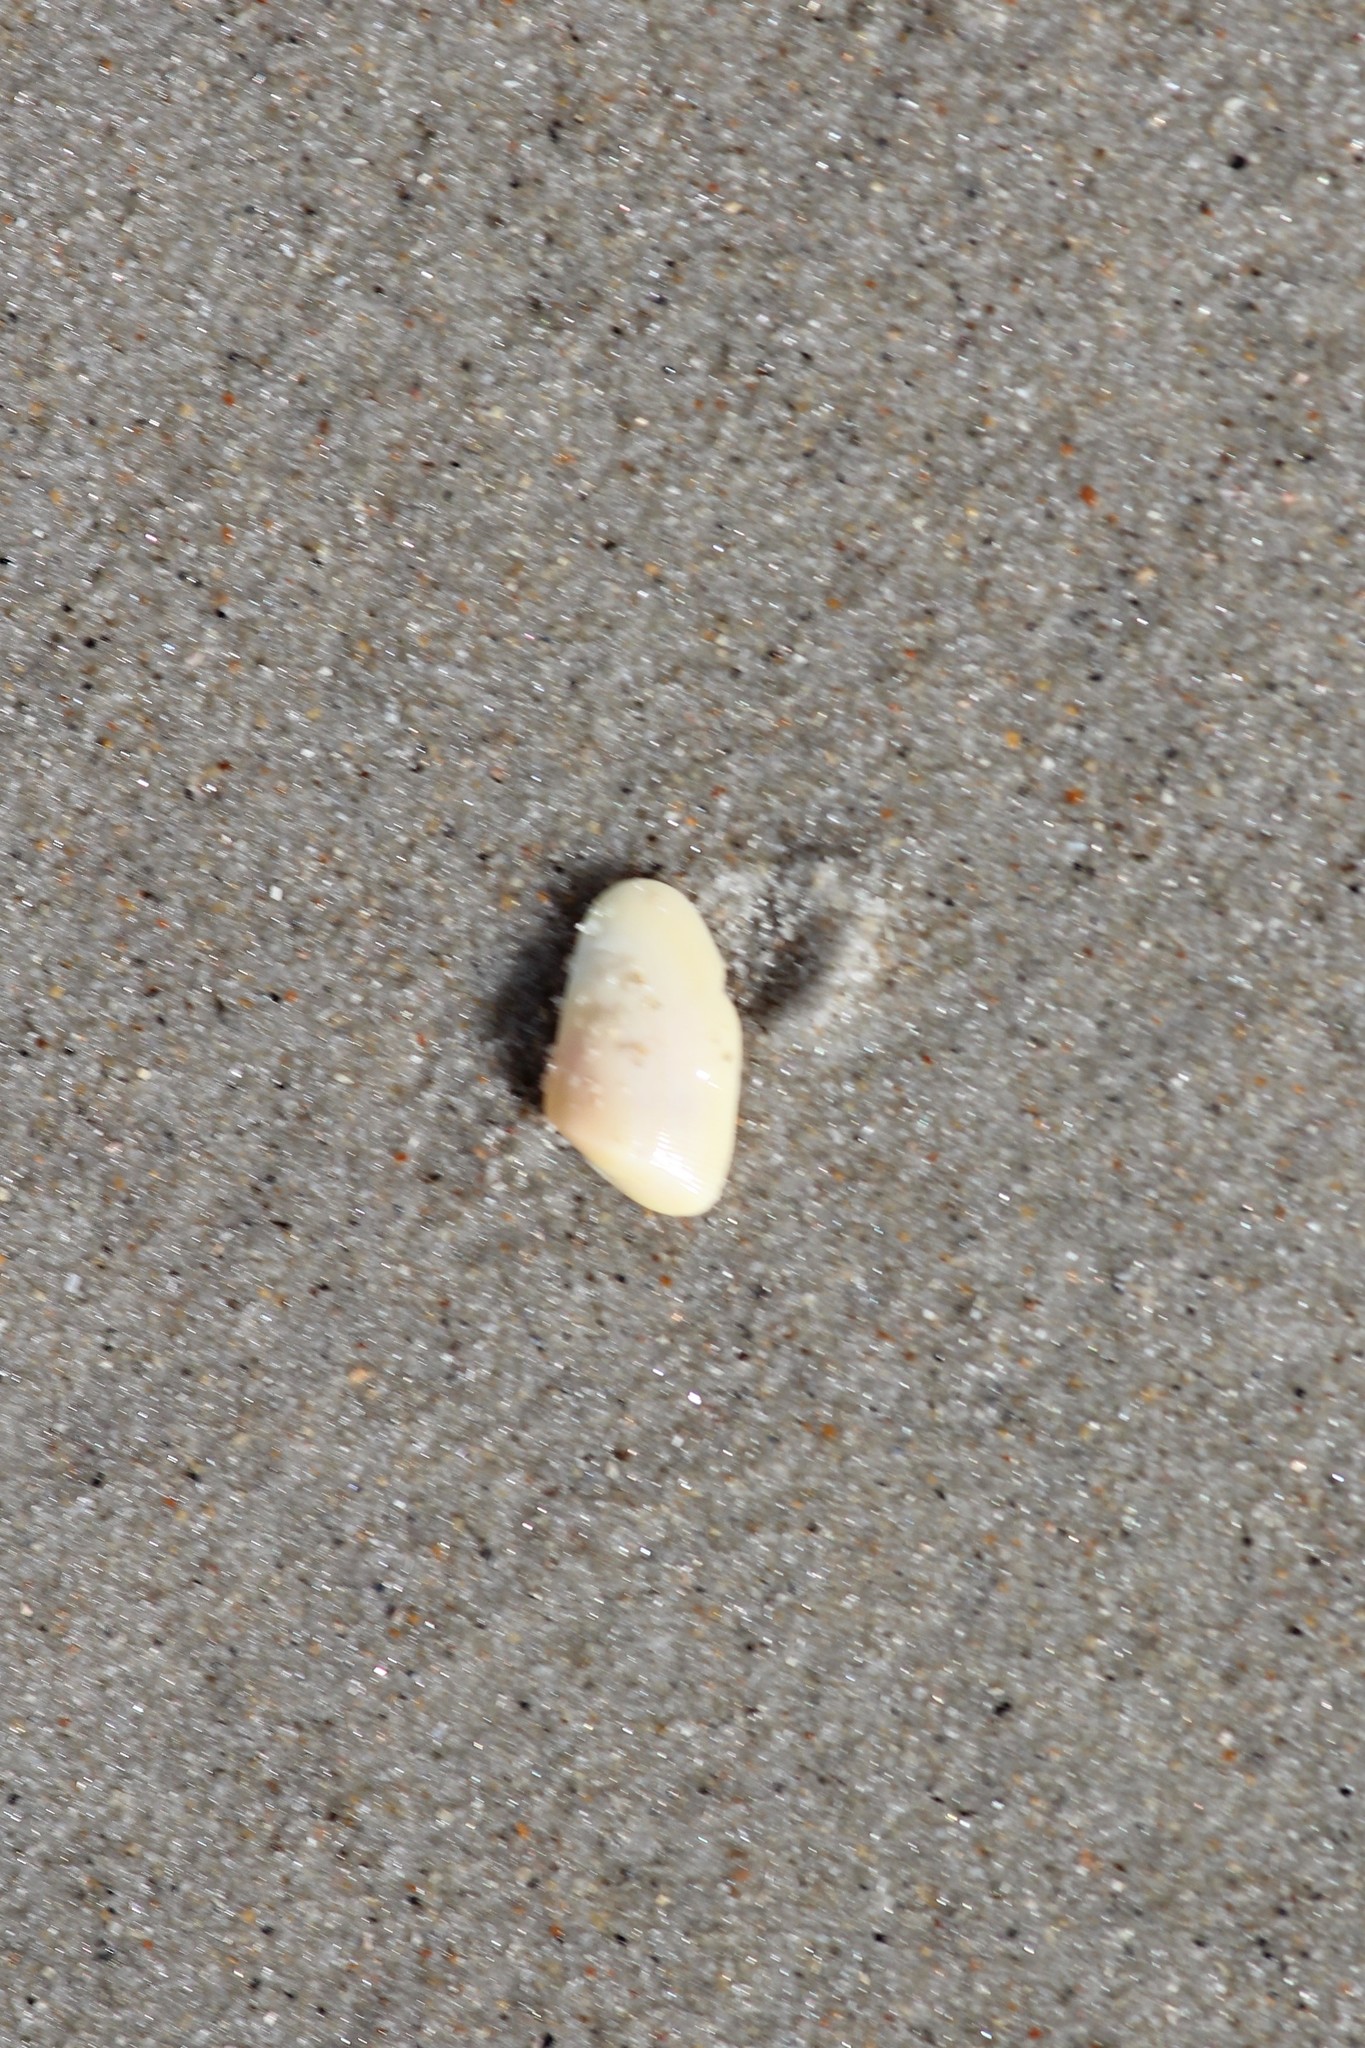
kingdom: Animalia
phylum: Mollusca
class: Bivalvia
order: Cardiida
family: Donacidae
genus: Donax
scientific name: Donax variabilis
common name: Butterfly shell
